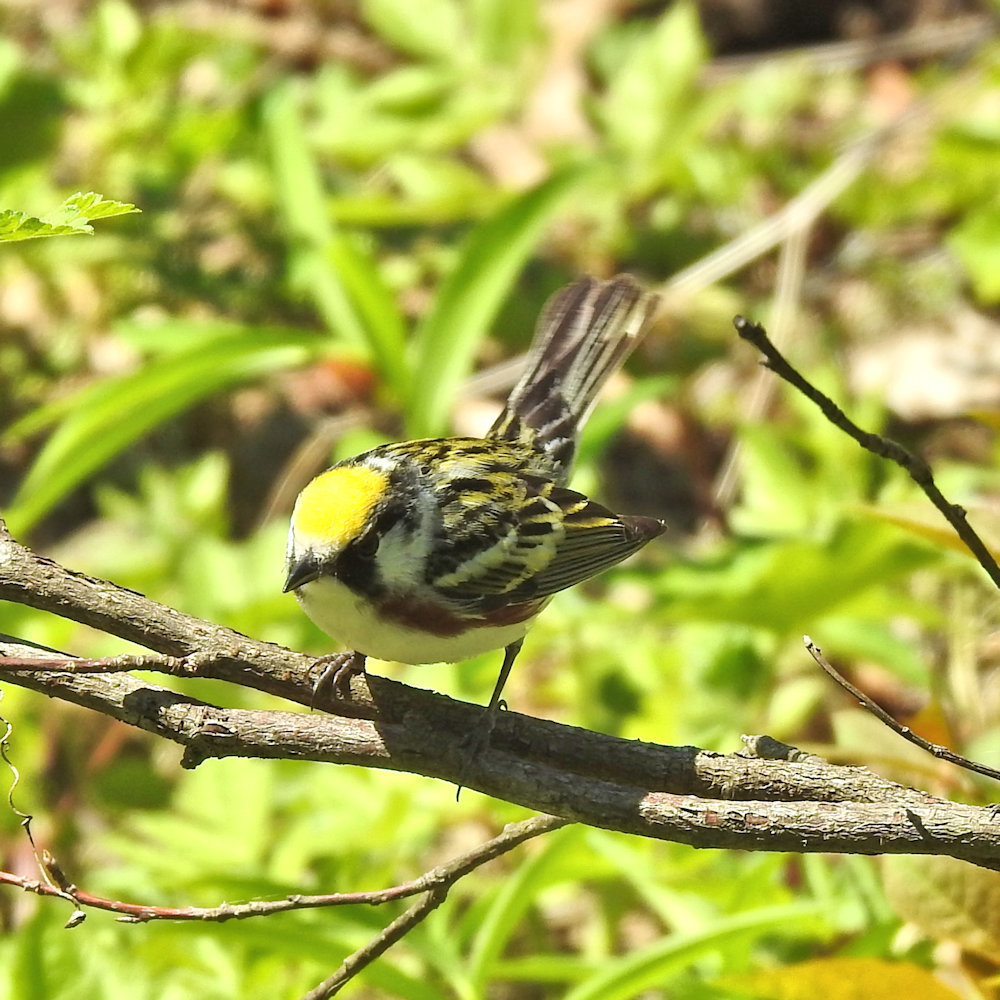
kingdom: Animalia
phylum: Chordata
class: Aves
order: Passeriformes
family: Parulidae
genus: Setophaga
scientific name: Setophaga pensylvanica
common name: Chestnut-sided warbler
